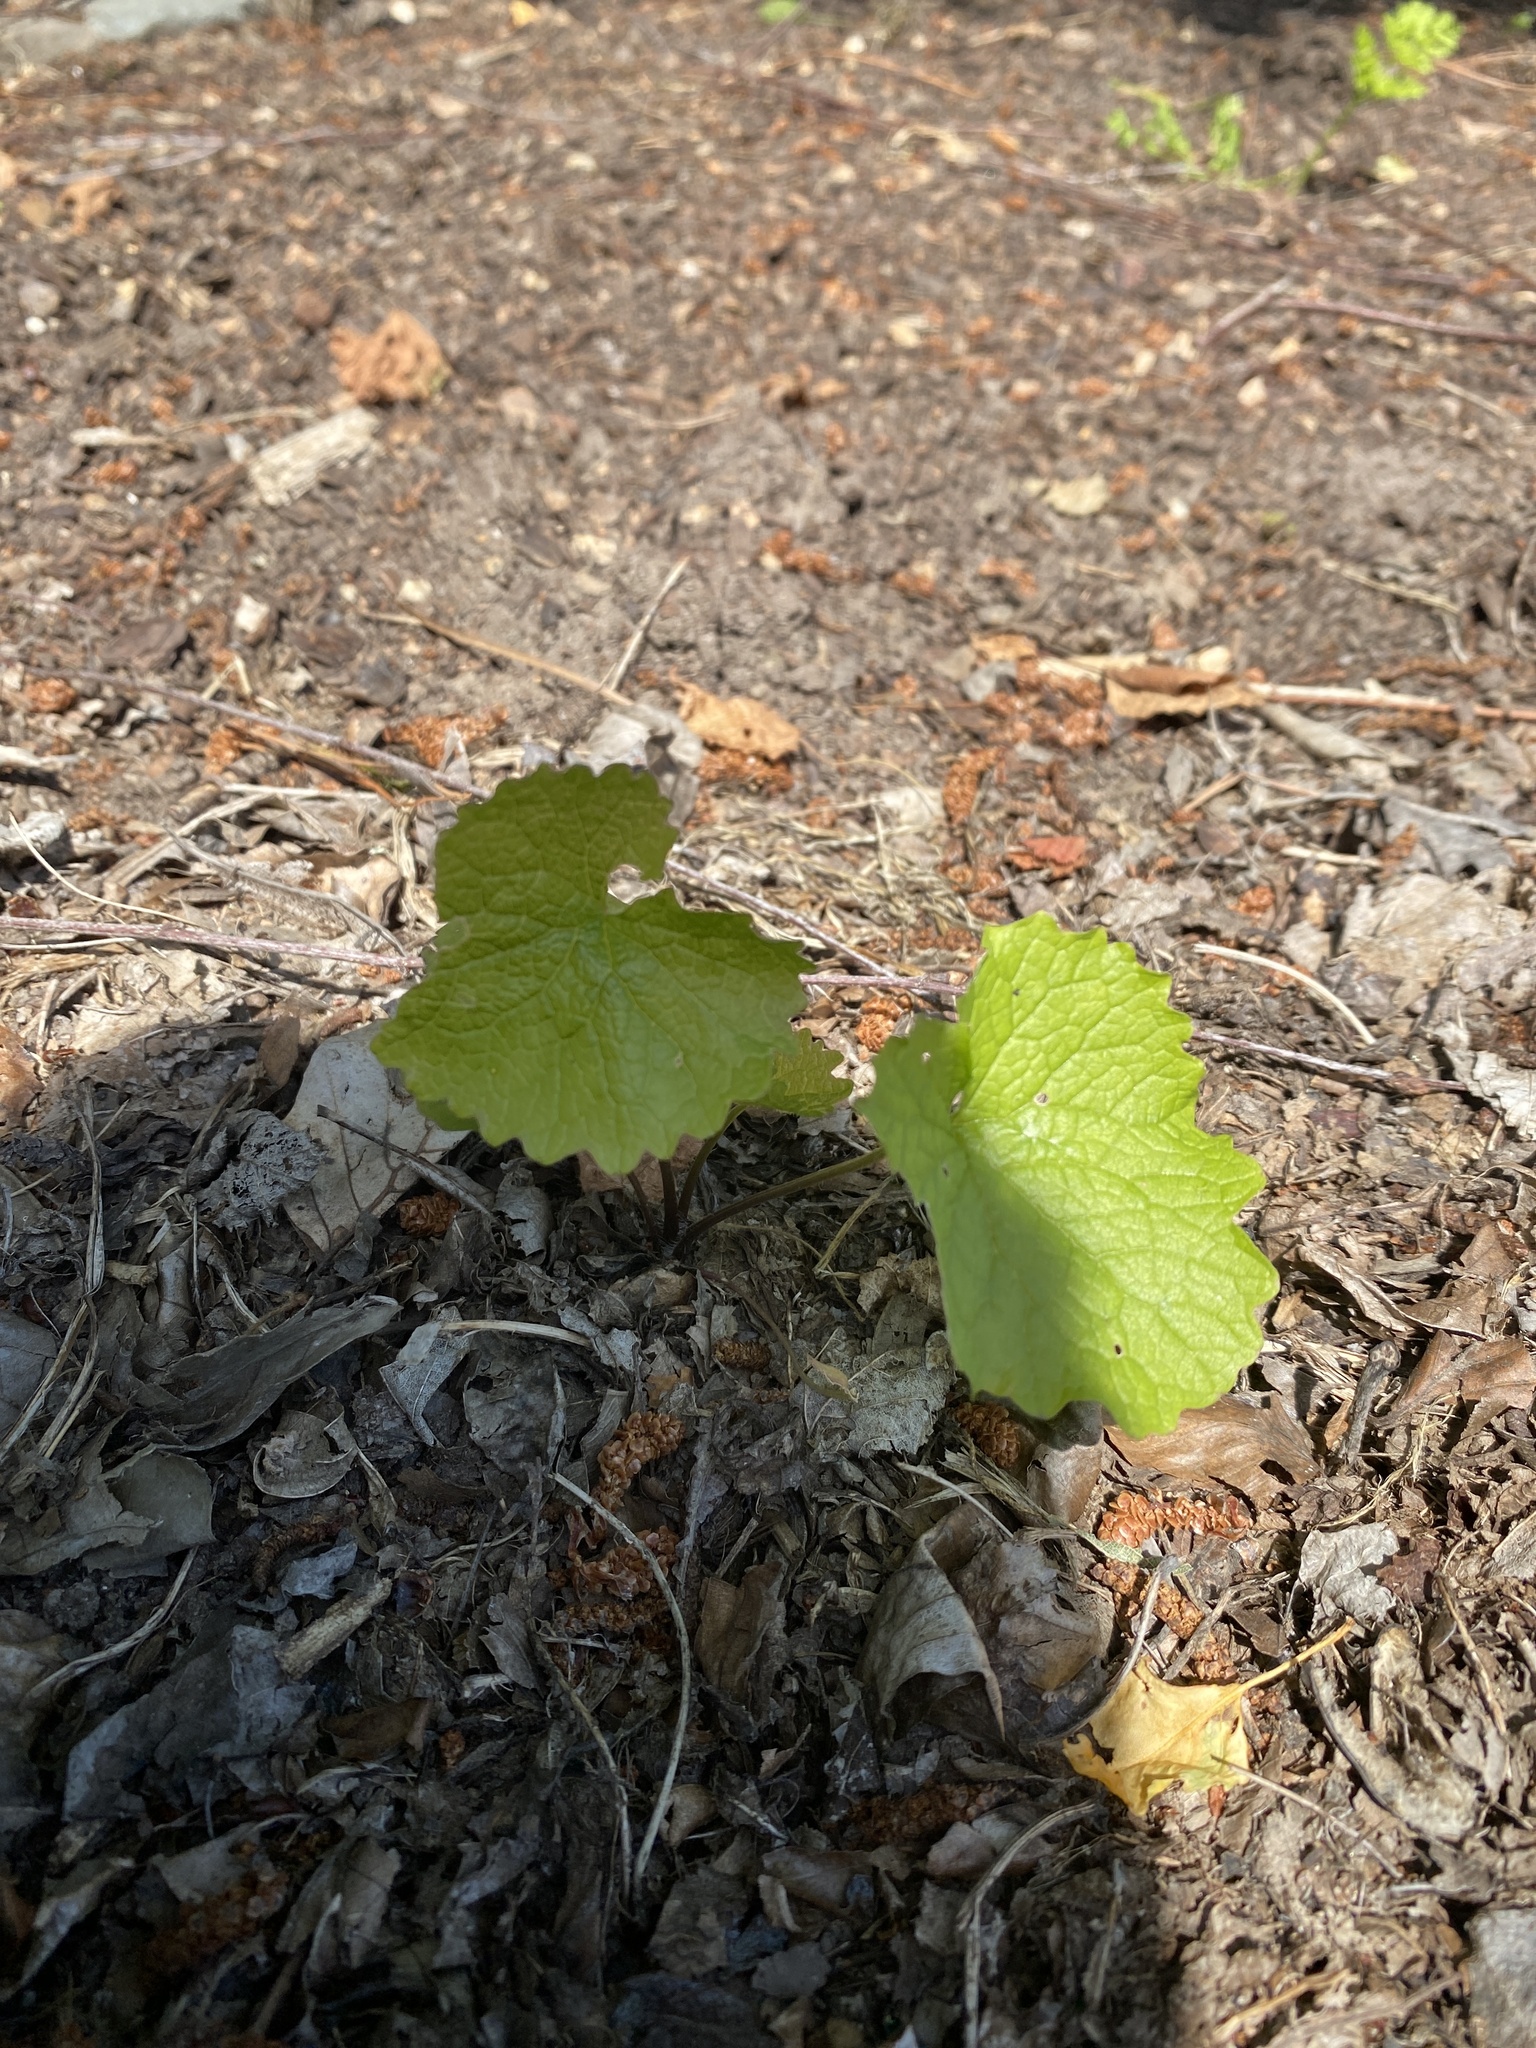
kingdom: Plantae
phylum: Tracheophyta
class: Magnoliopsida
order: Brassicales
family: Brassicaceae
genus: Alliaria
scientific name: Alliaria petiolata
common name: Garlic mustard
